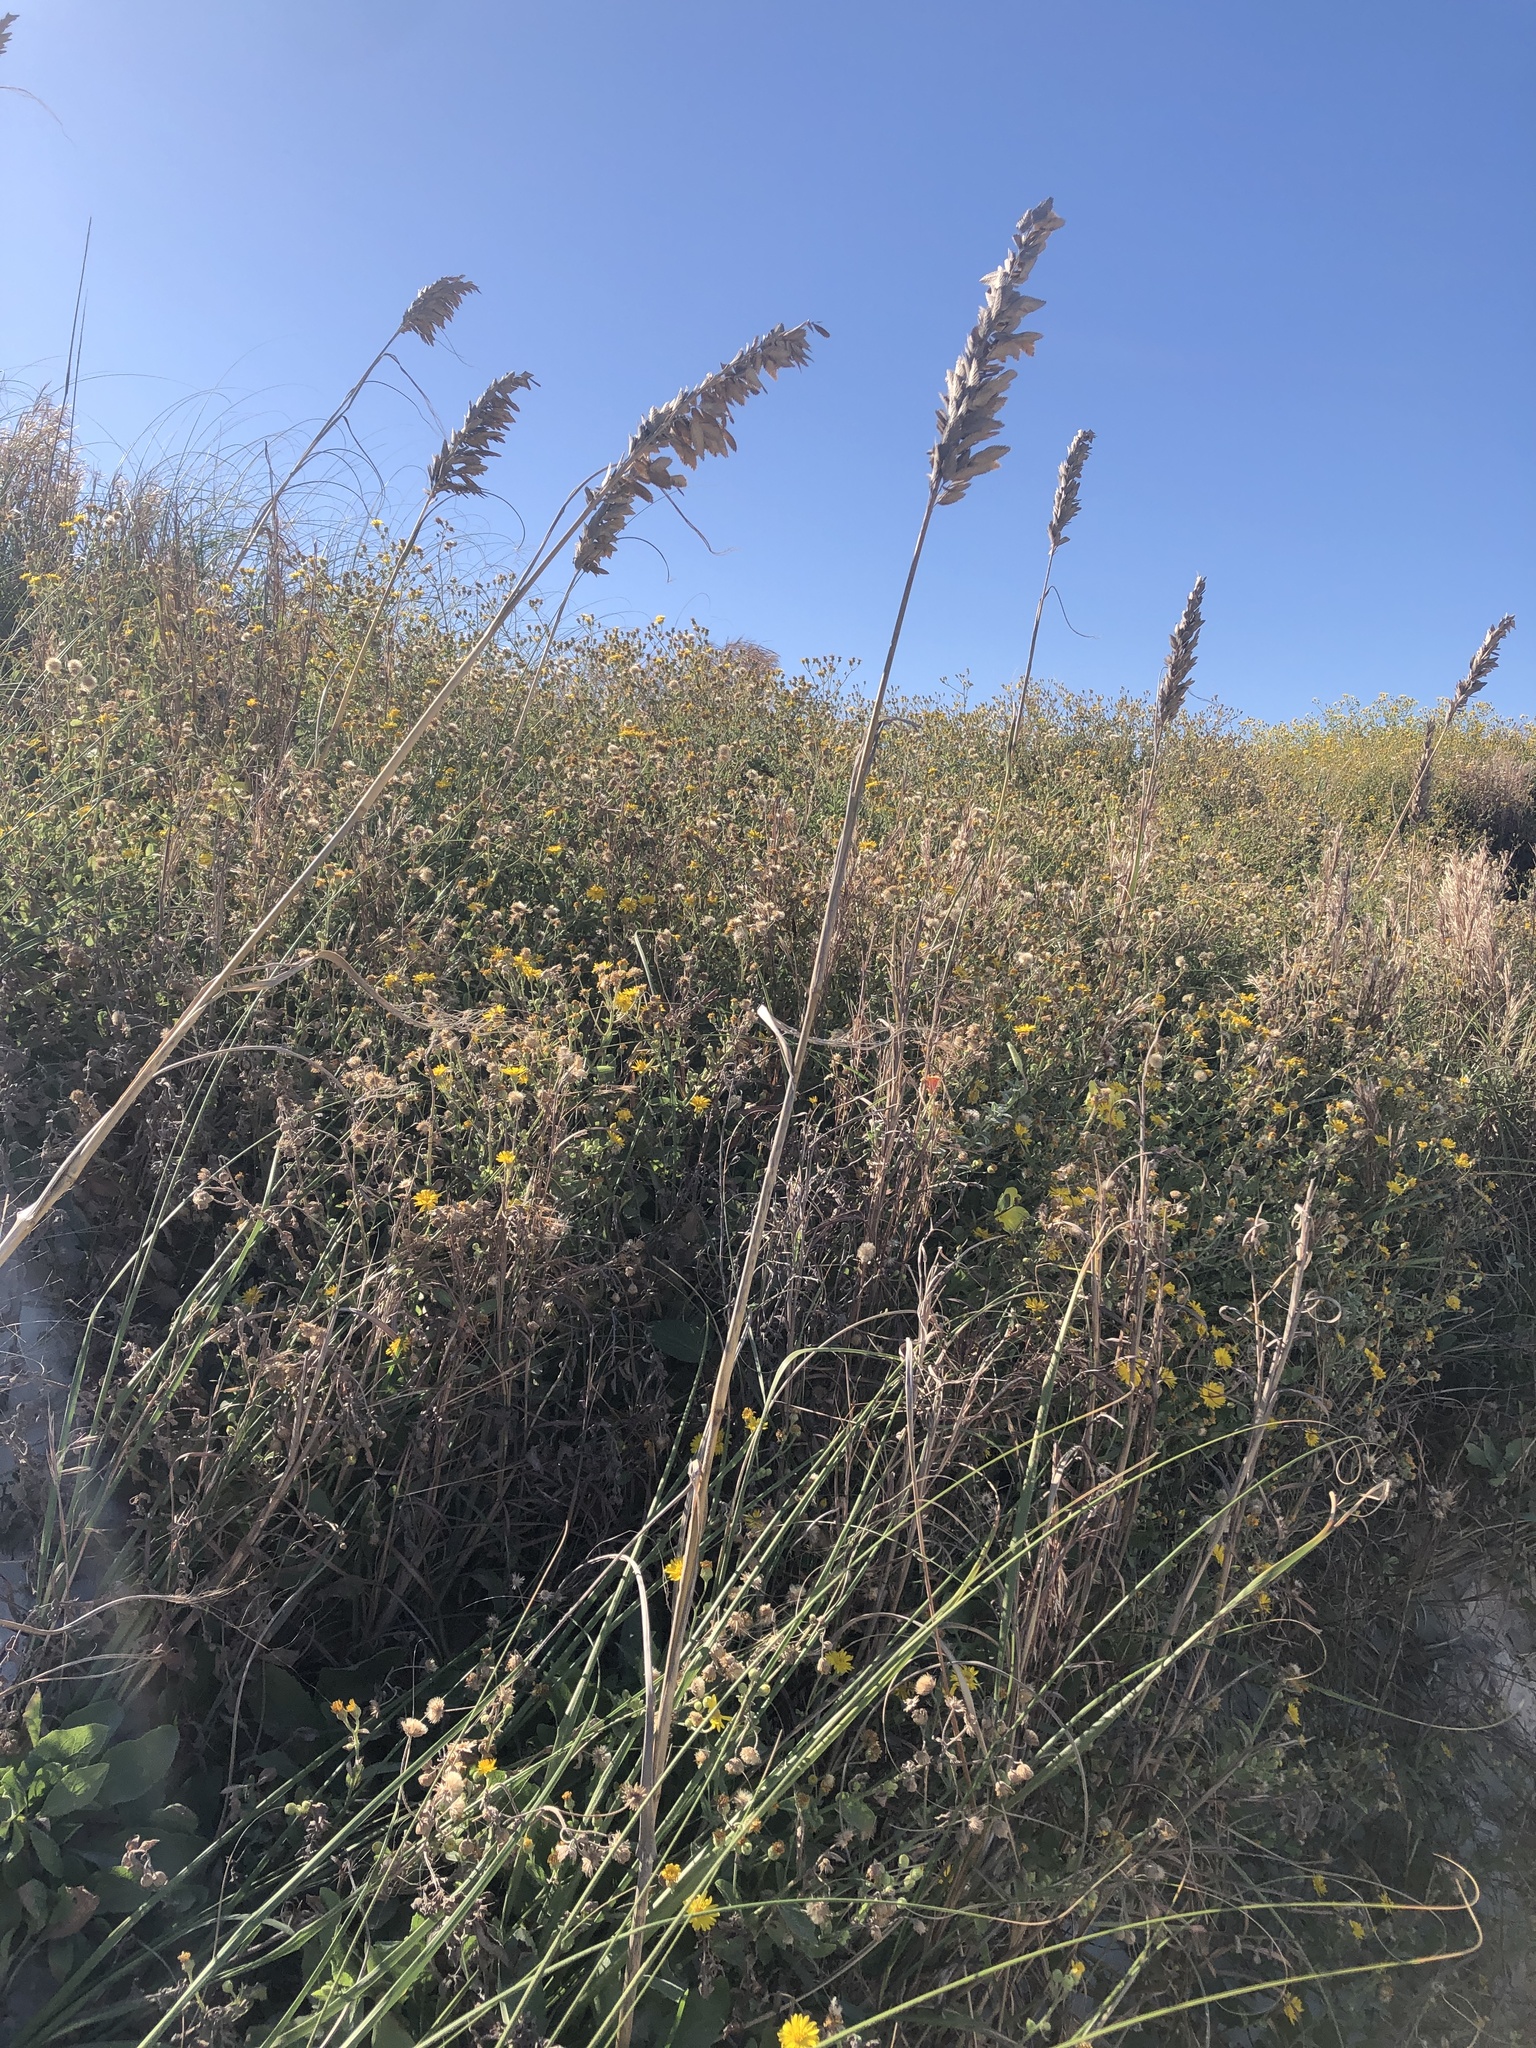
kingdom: Plantae
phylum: Tracheophyta
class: Liliopsida
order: Poales
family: Poaceae
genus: Uniola
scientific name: Uniola paniculata
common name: Seaside-oats
